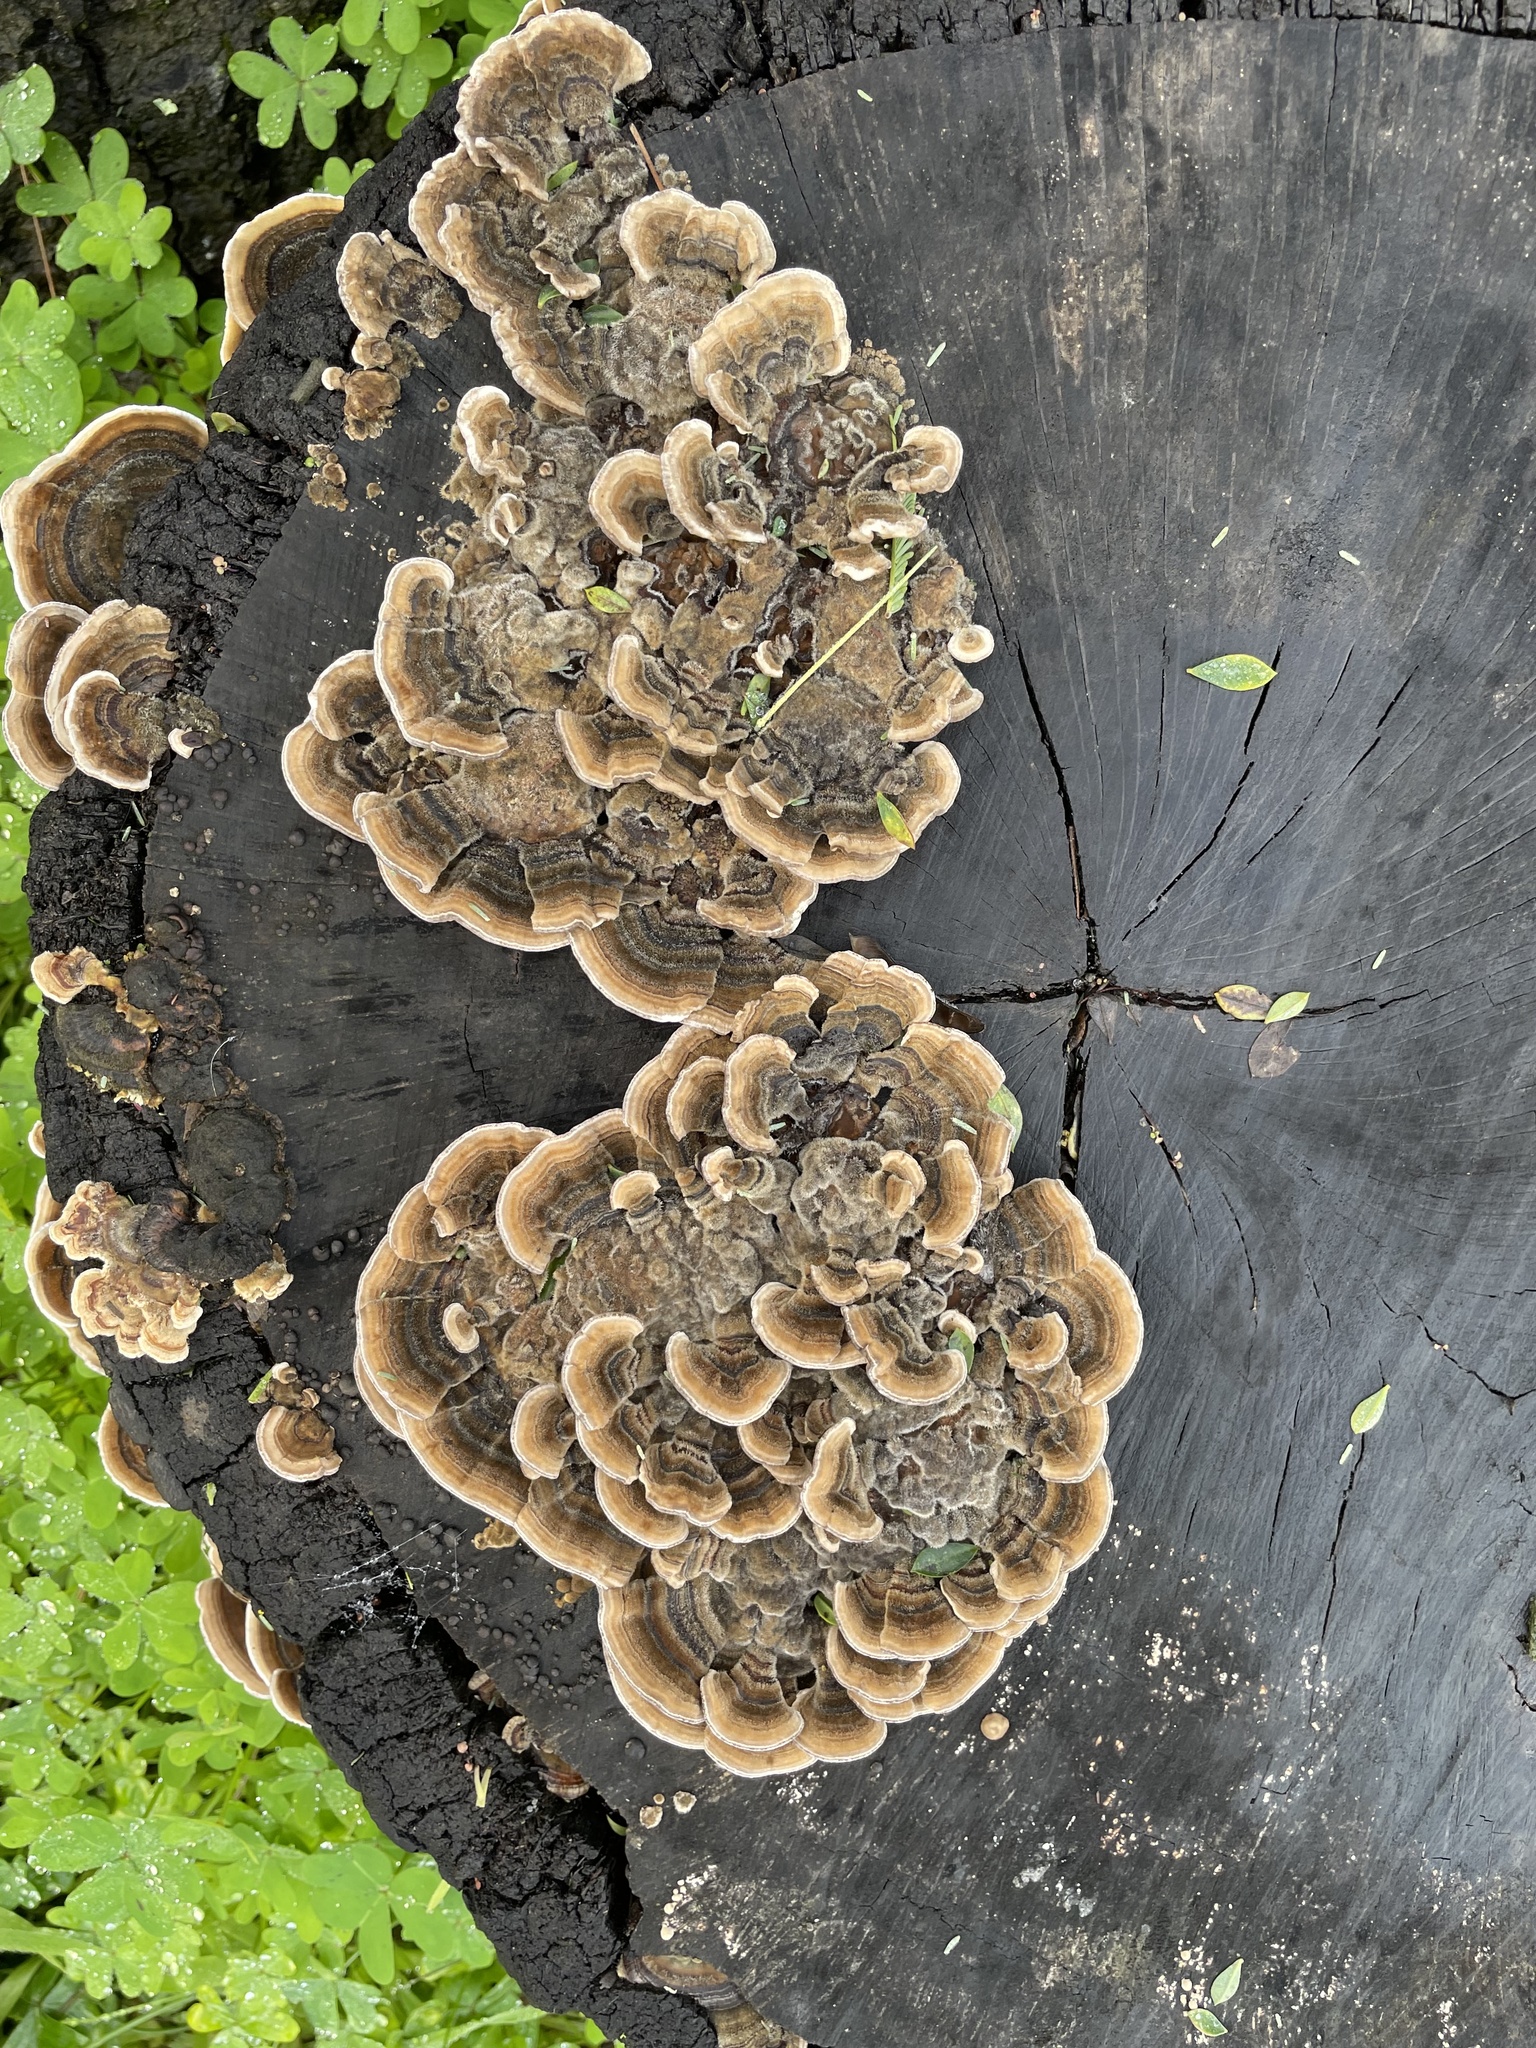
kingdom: Fungi
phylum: Basidiomycota
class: Agaricomycetes
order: Polyporales
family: Polyporaceae
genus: Trametes
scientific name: Trametes versicolor
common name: Turkeytail
